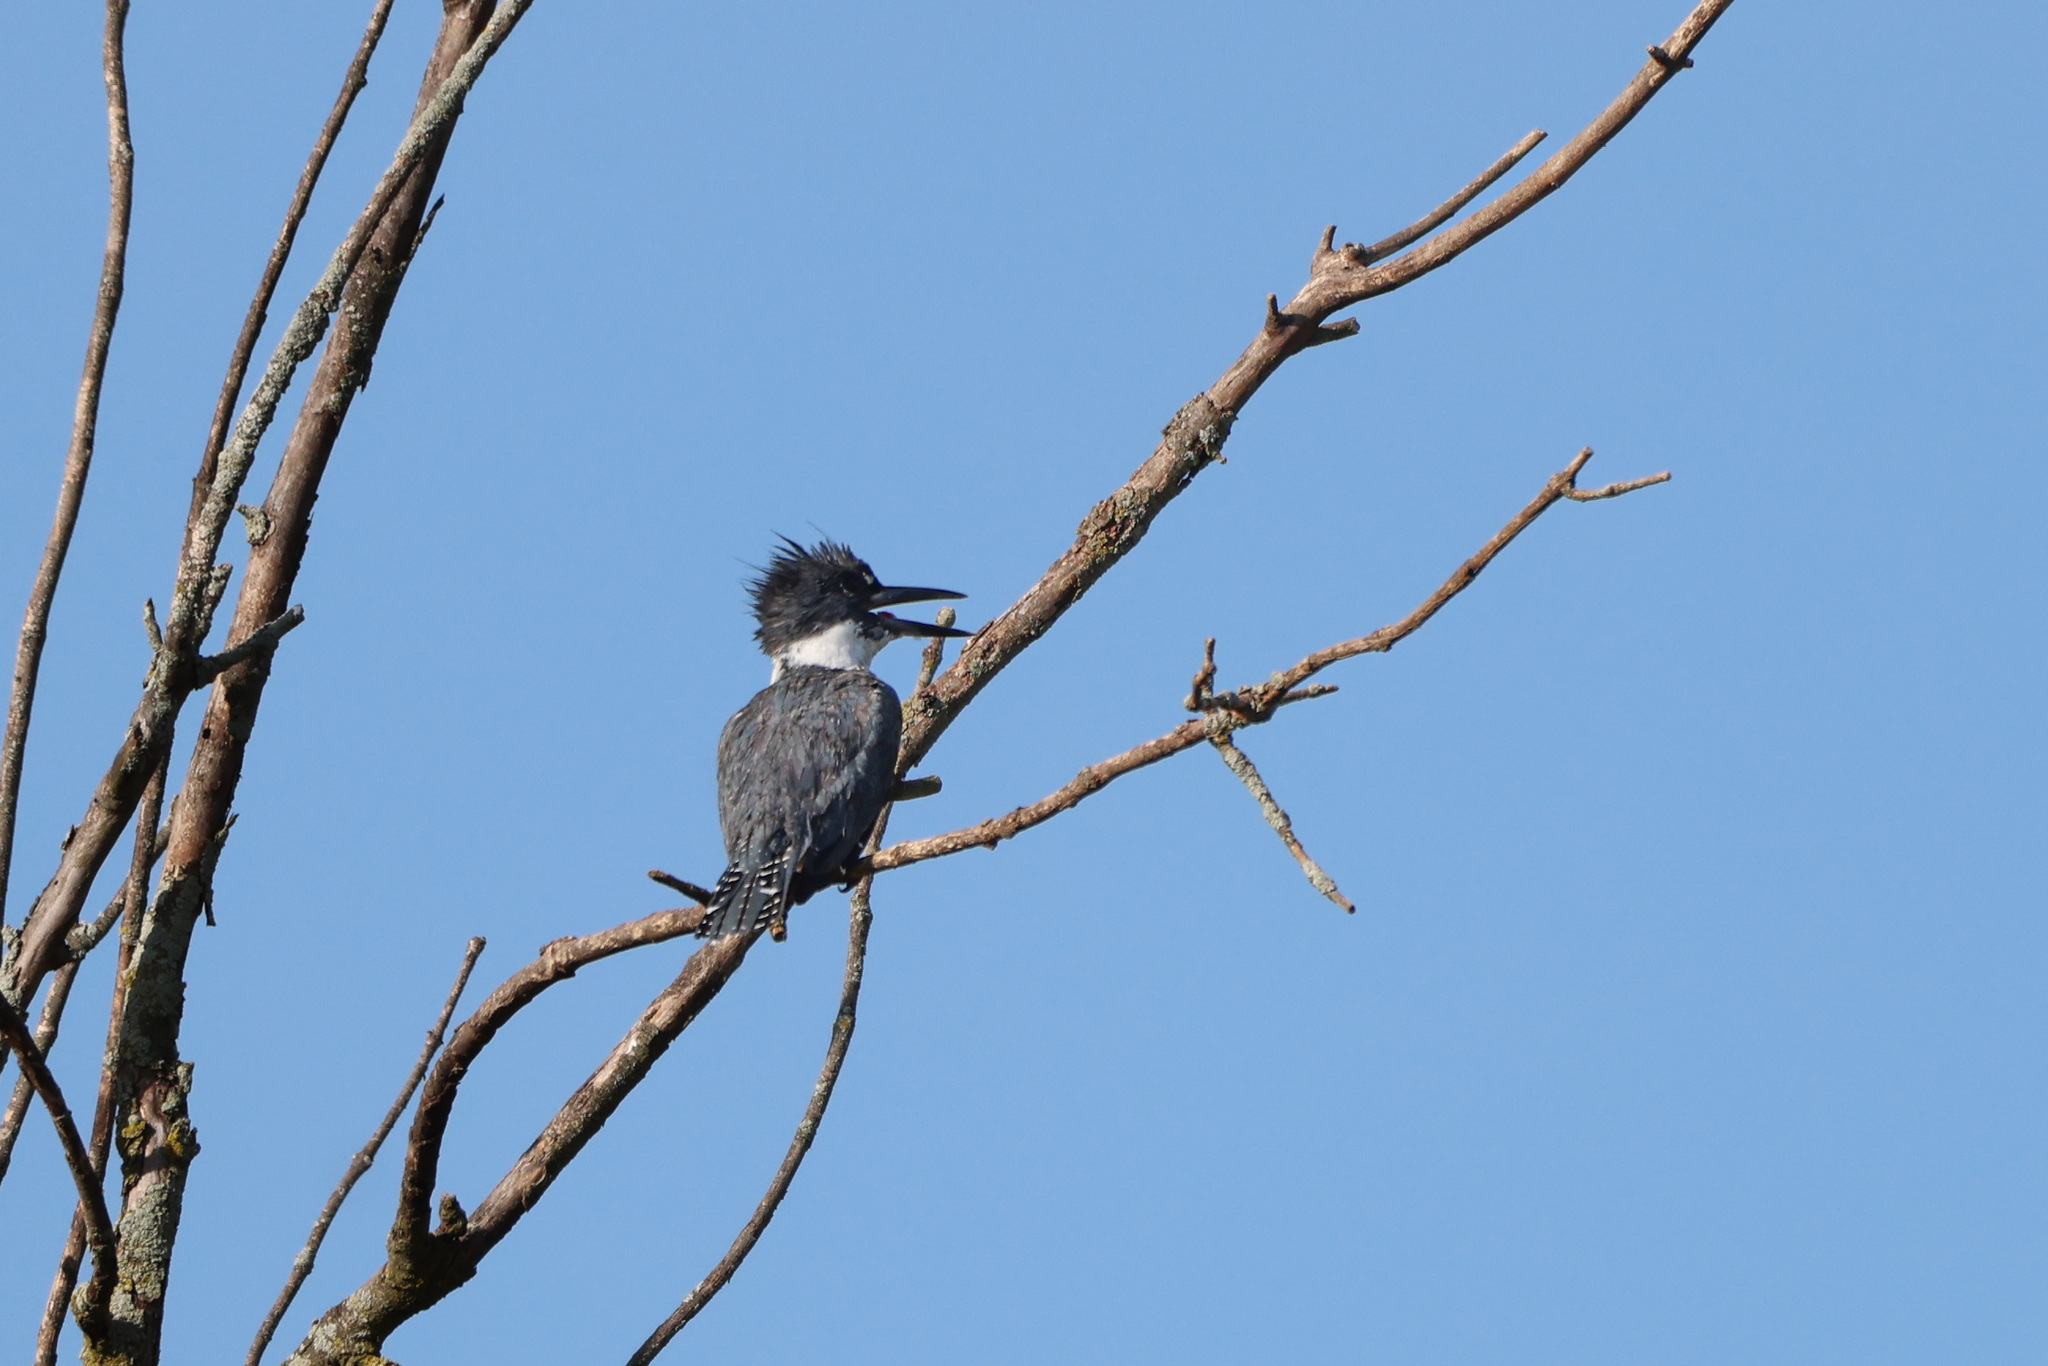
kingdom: Animalia
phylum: Chordata
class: Aves
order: Coraciiformes
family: Alcedinidae
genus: Megaceryle
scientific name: Megaceryle alcyon
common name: Belted kingfisher
